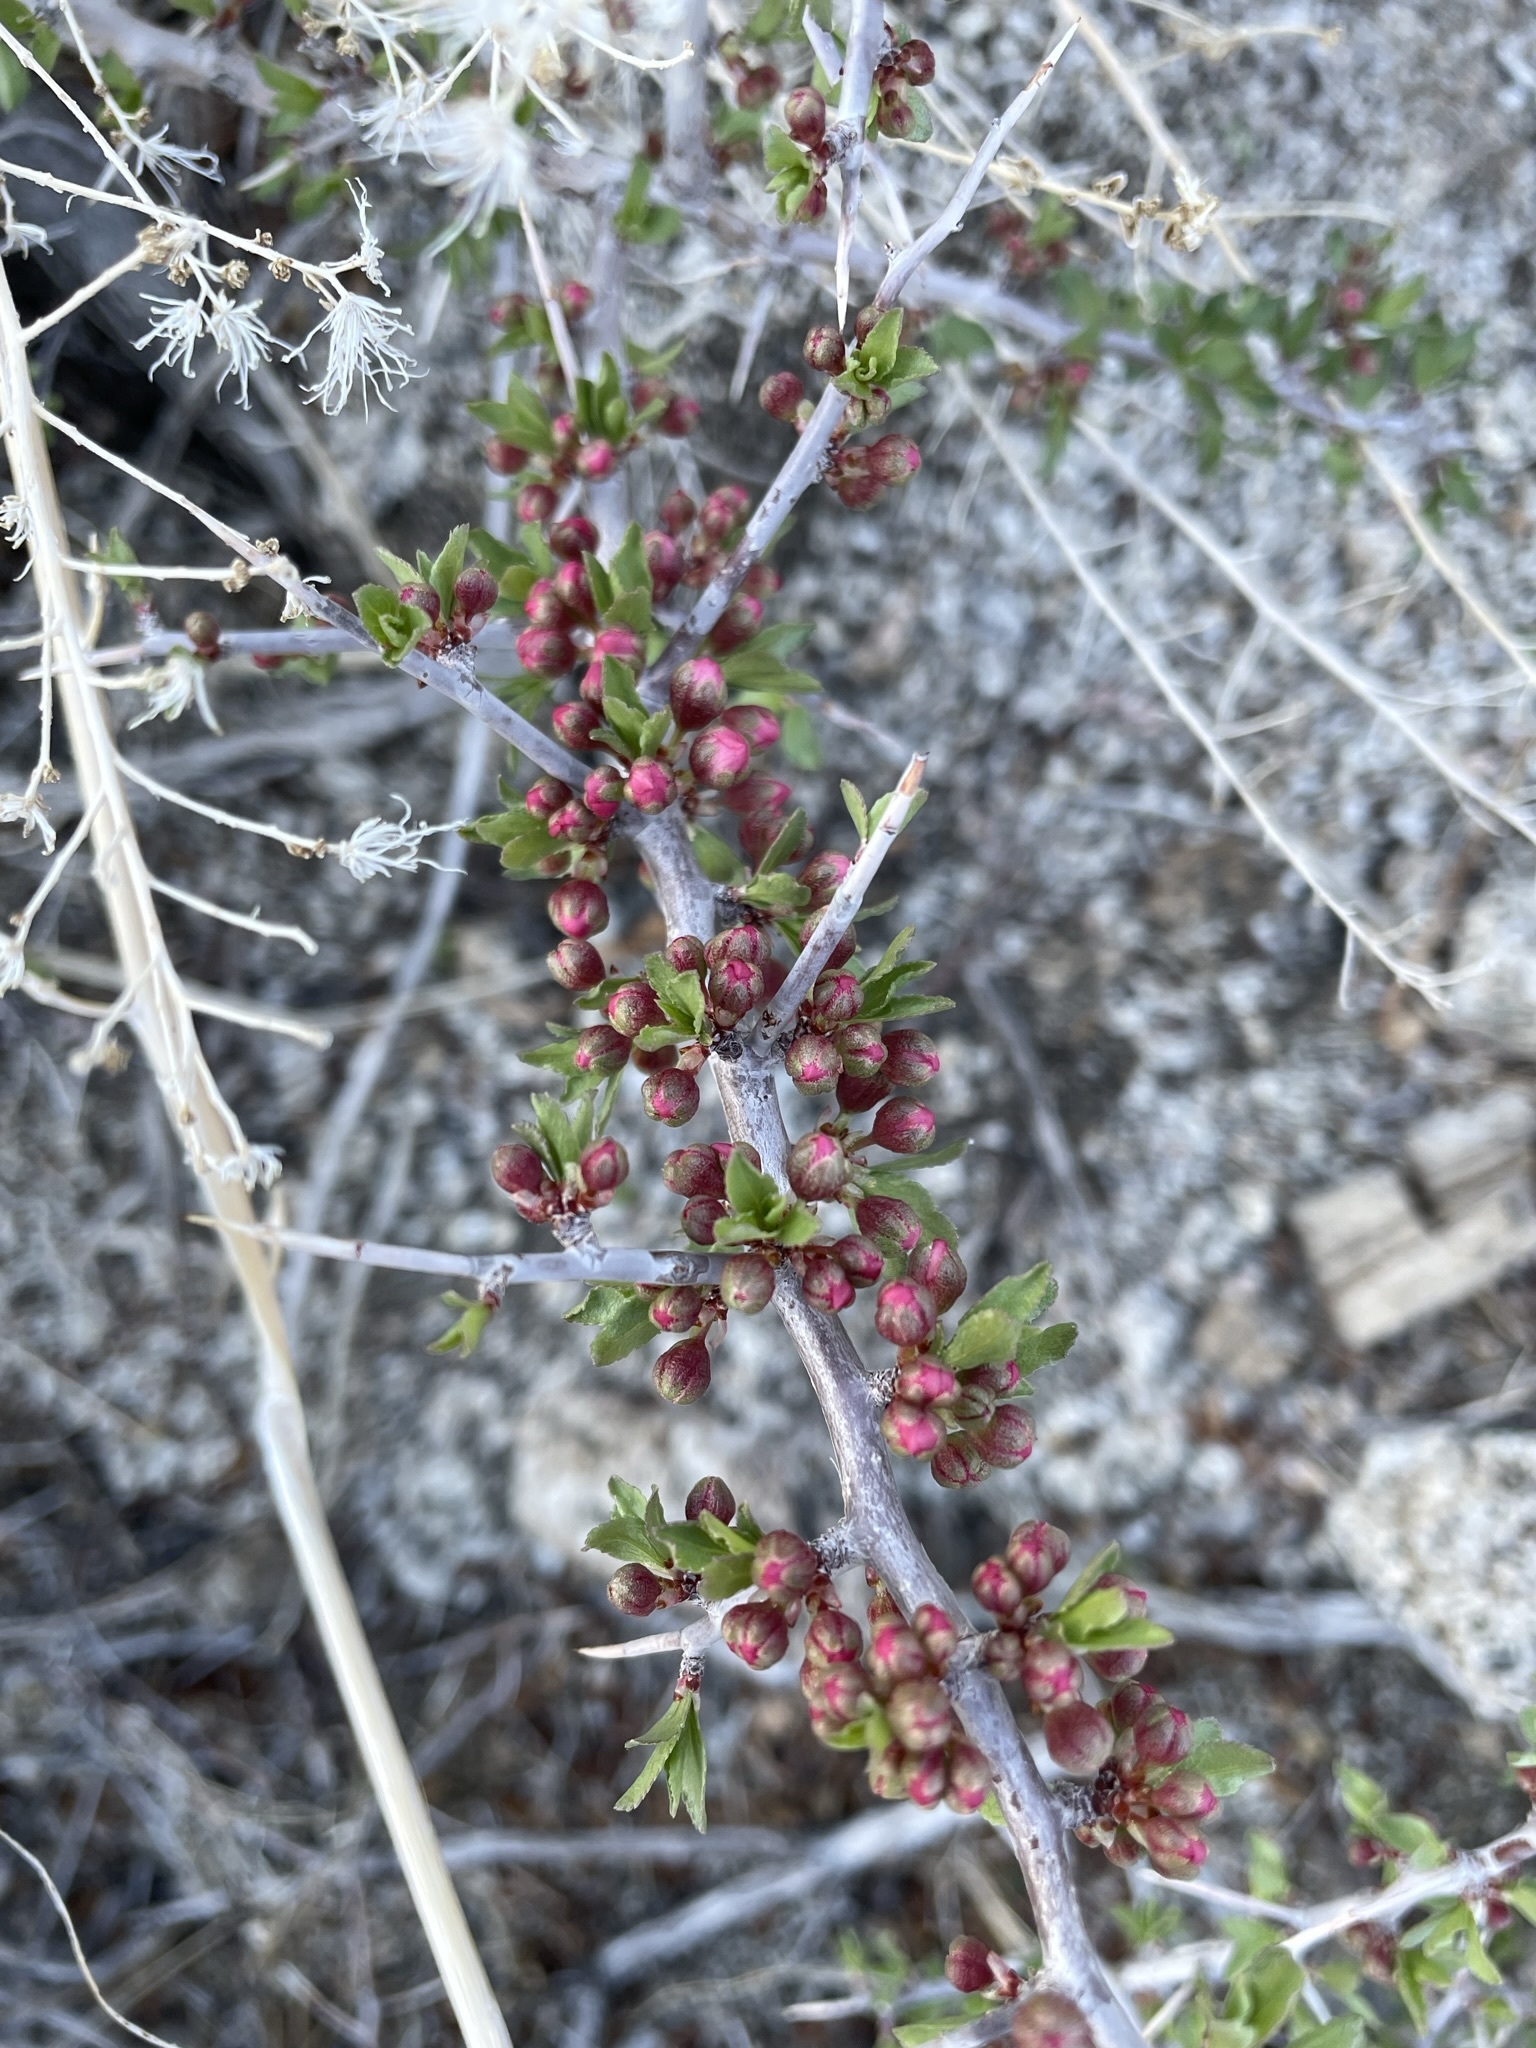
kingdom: Plantae
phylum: Tracheophyta
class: Magnoliopsida
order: Rosales
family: Rosaceae
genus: Prunus
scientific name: Prunus andersonii
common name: Desert peach
